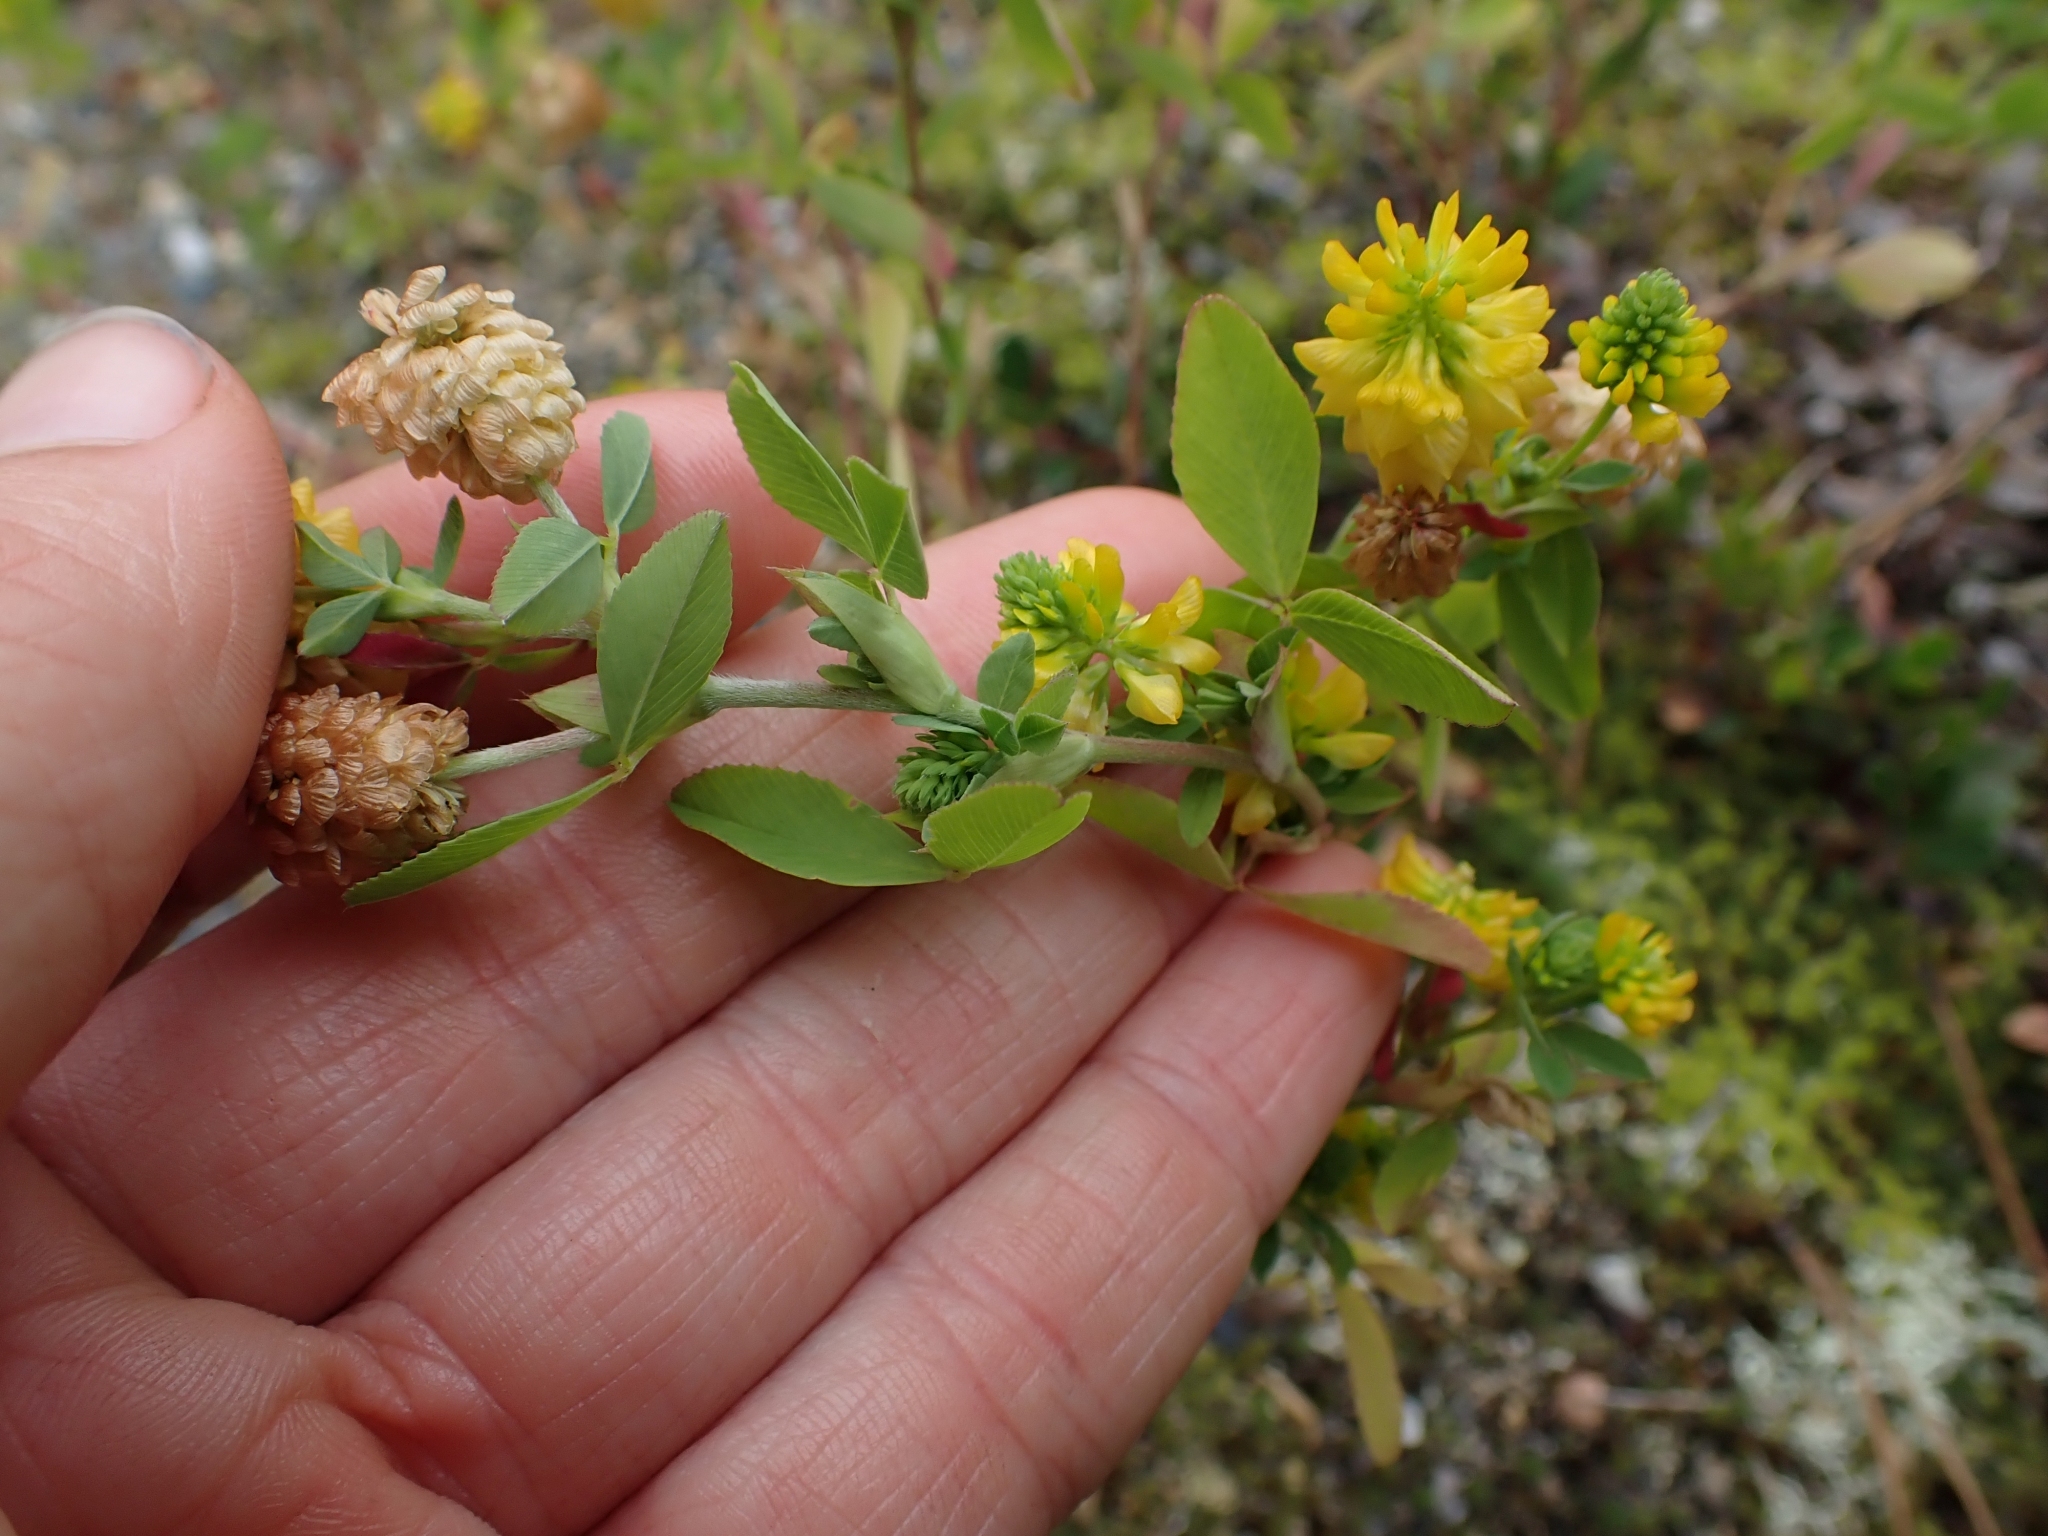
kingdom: Plantae
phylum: Tracheophyta
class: Magnoliopsida
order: Fabales
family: Fabaceae
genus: Trifolium
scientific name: Trifolium aureum
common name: Golden clover
